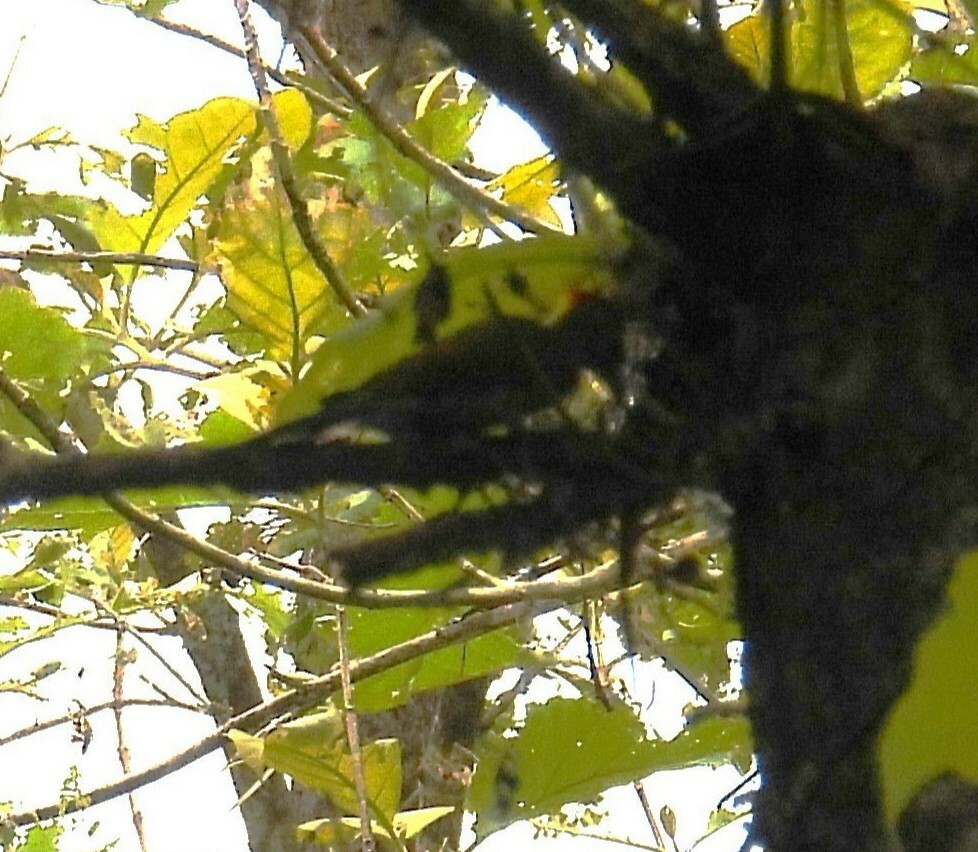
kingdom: Animalia
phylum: Chordata
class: Aves
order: Piciformes
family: Picidae
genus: Picus
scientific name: Picus chlorolophus
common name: Lesser yellownape
